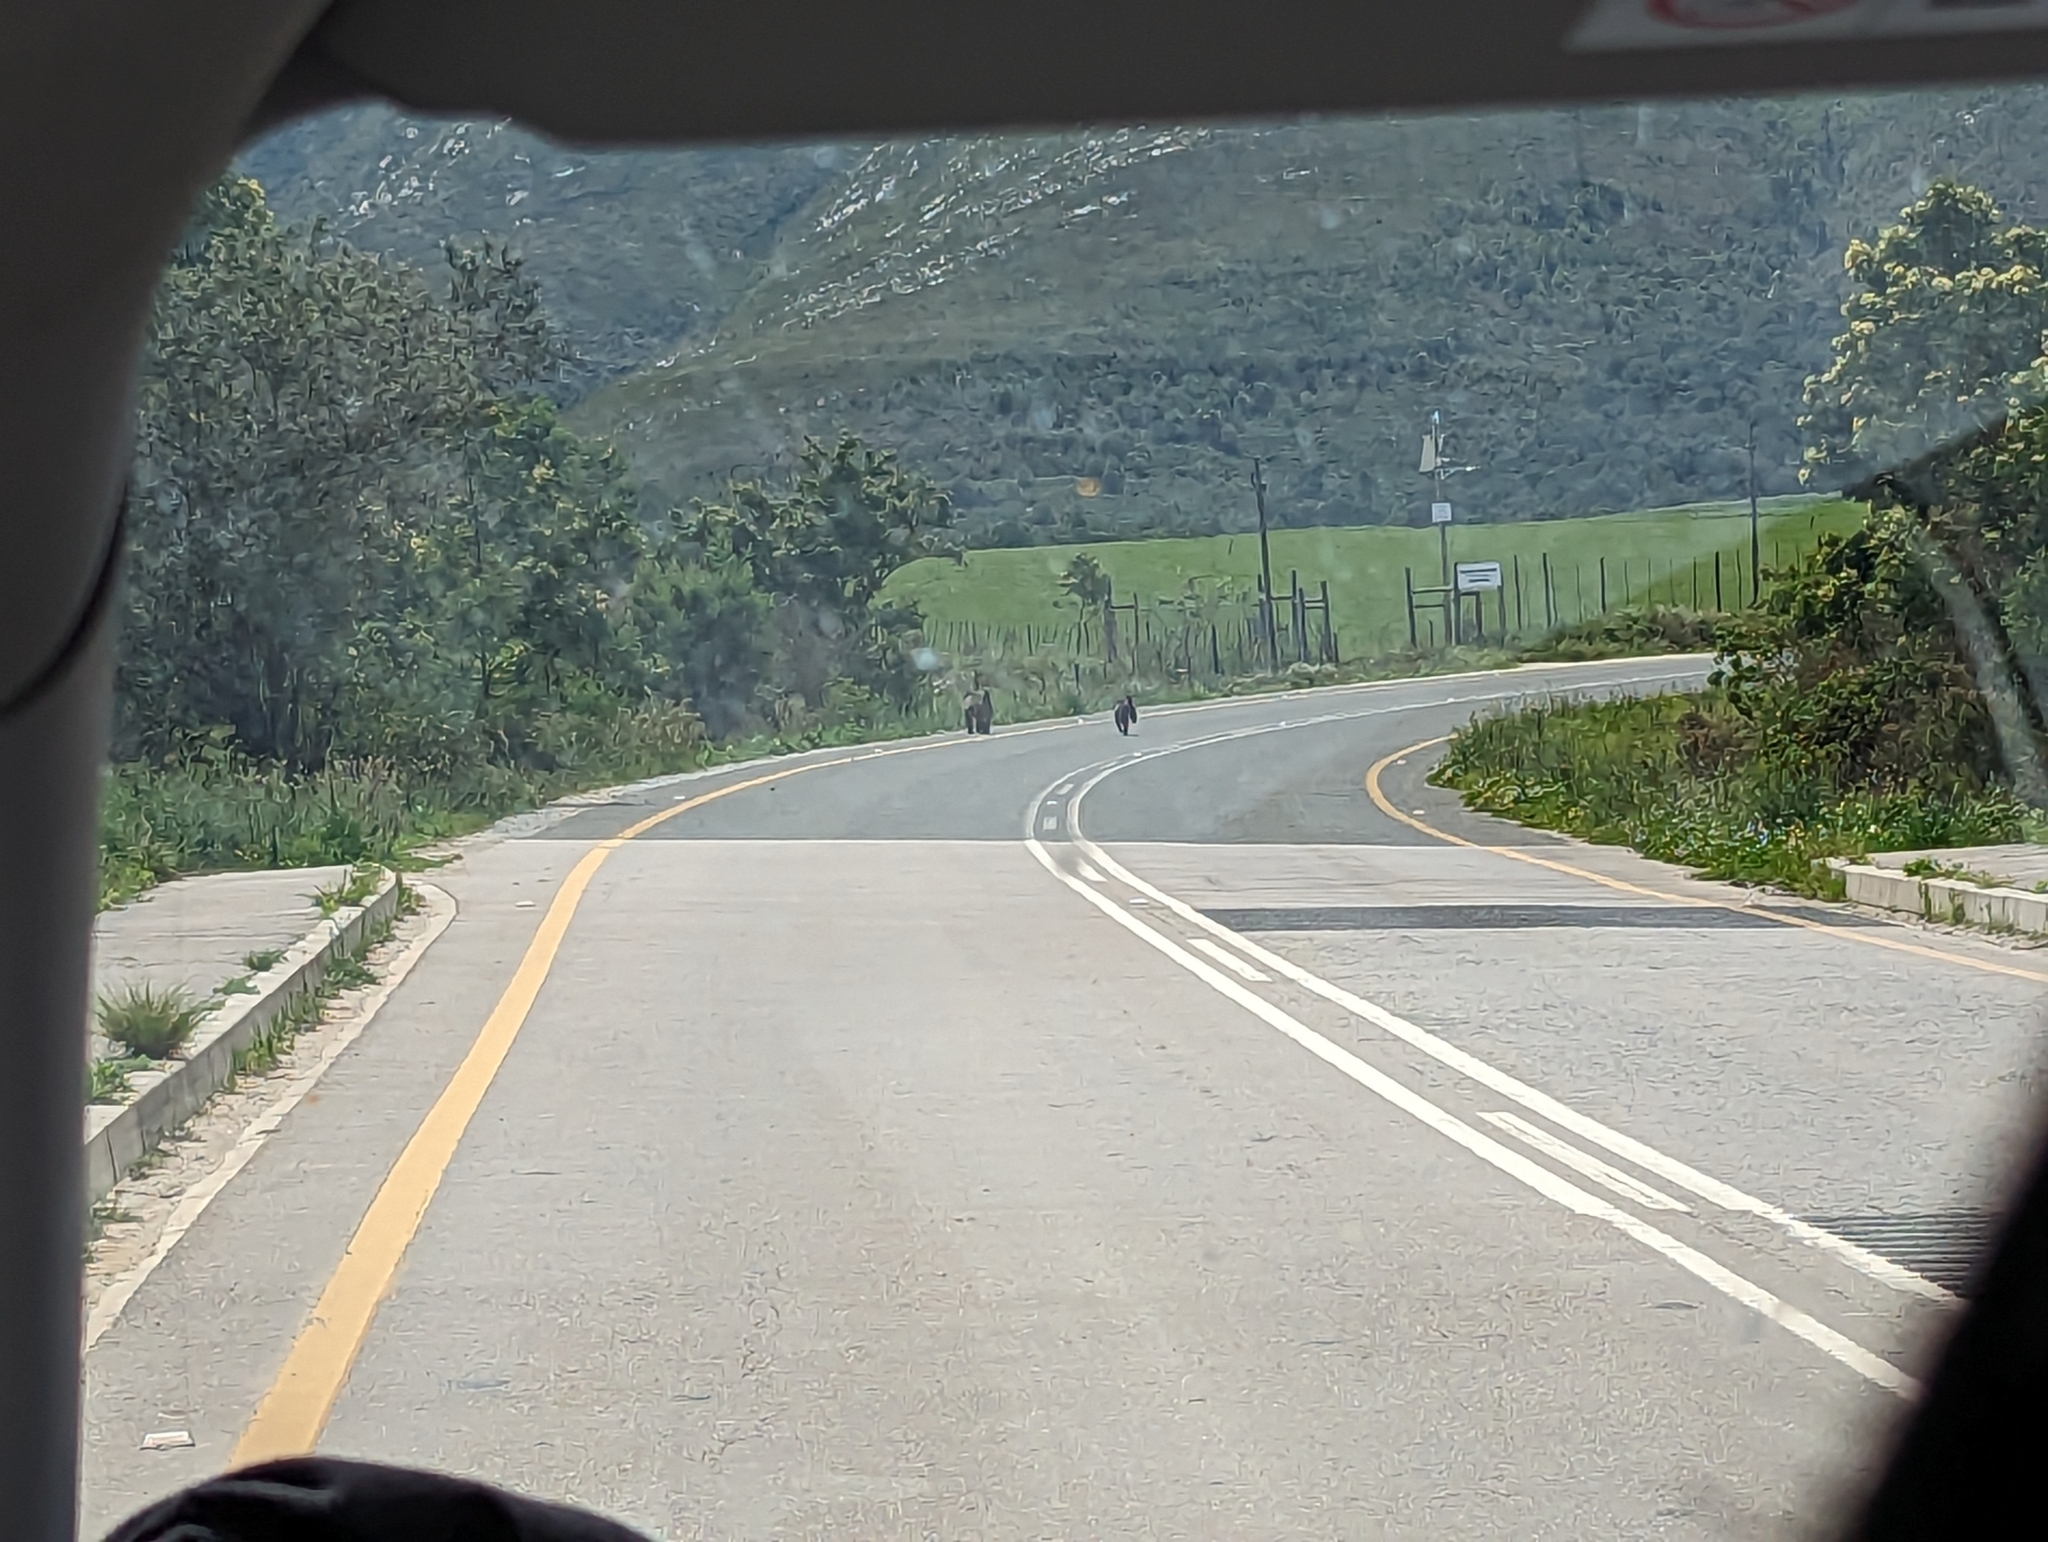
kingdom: Animalia
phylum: Chordata
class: Mammalia
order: Primates
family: Cercopithecidae
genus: Papio
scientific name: Papio ursinus
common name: Chacma baboon
